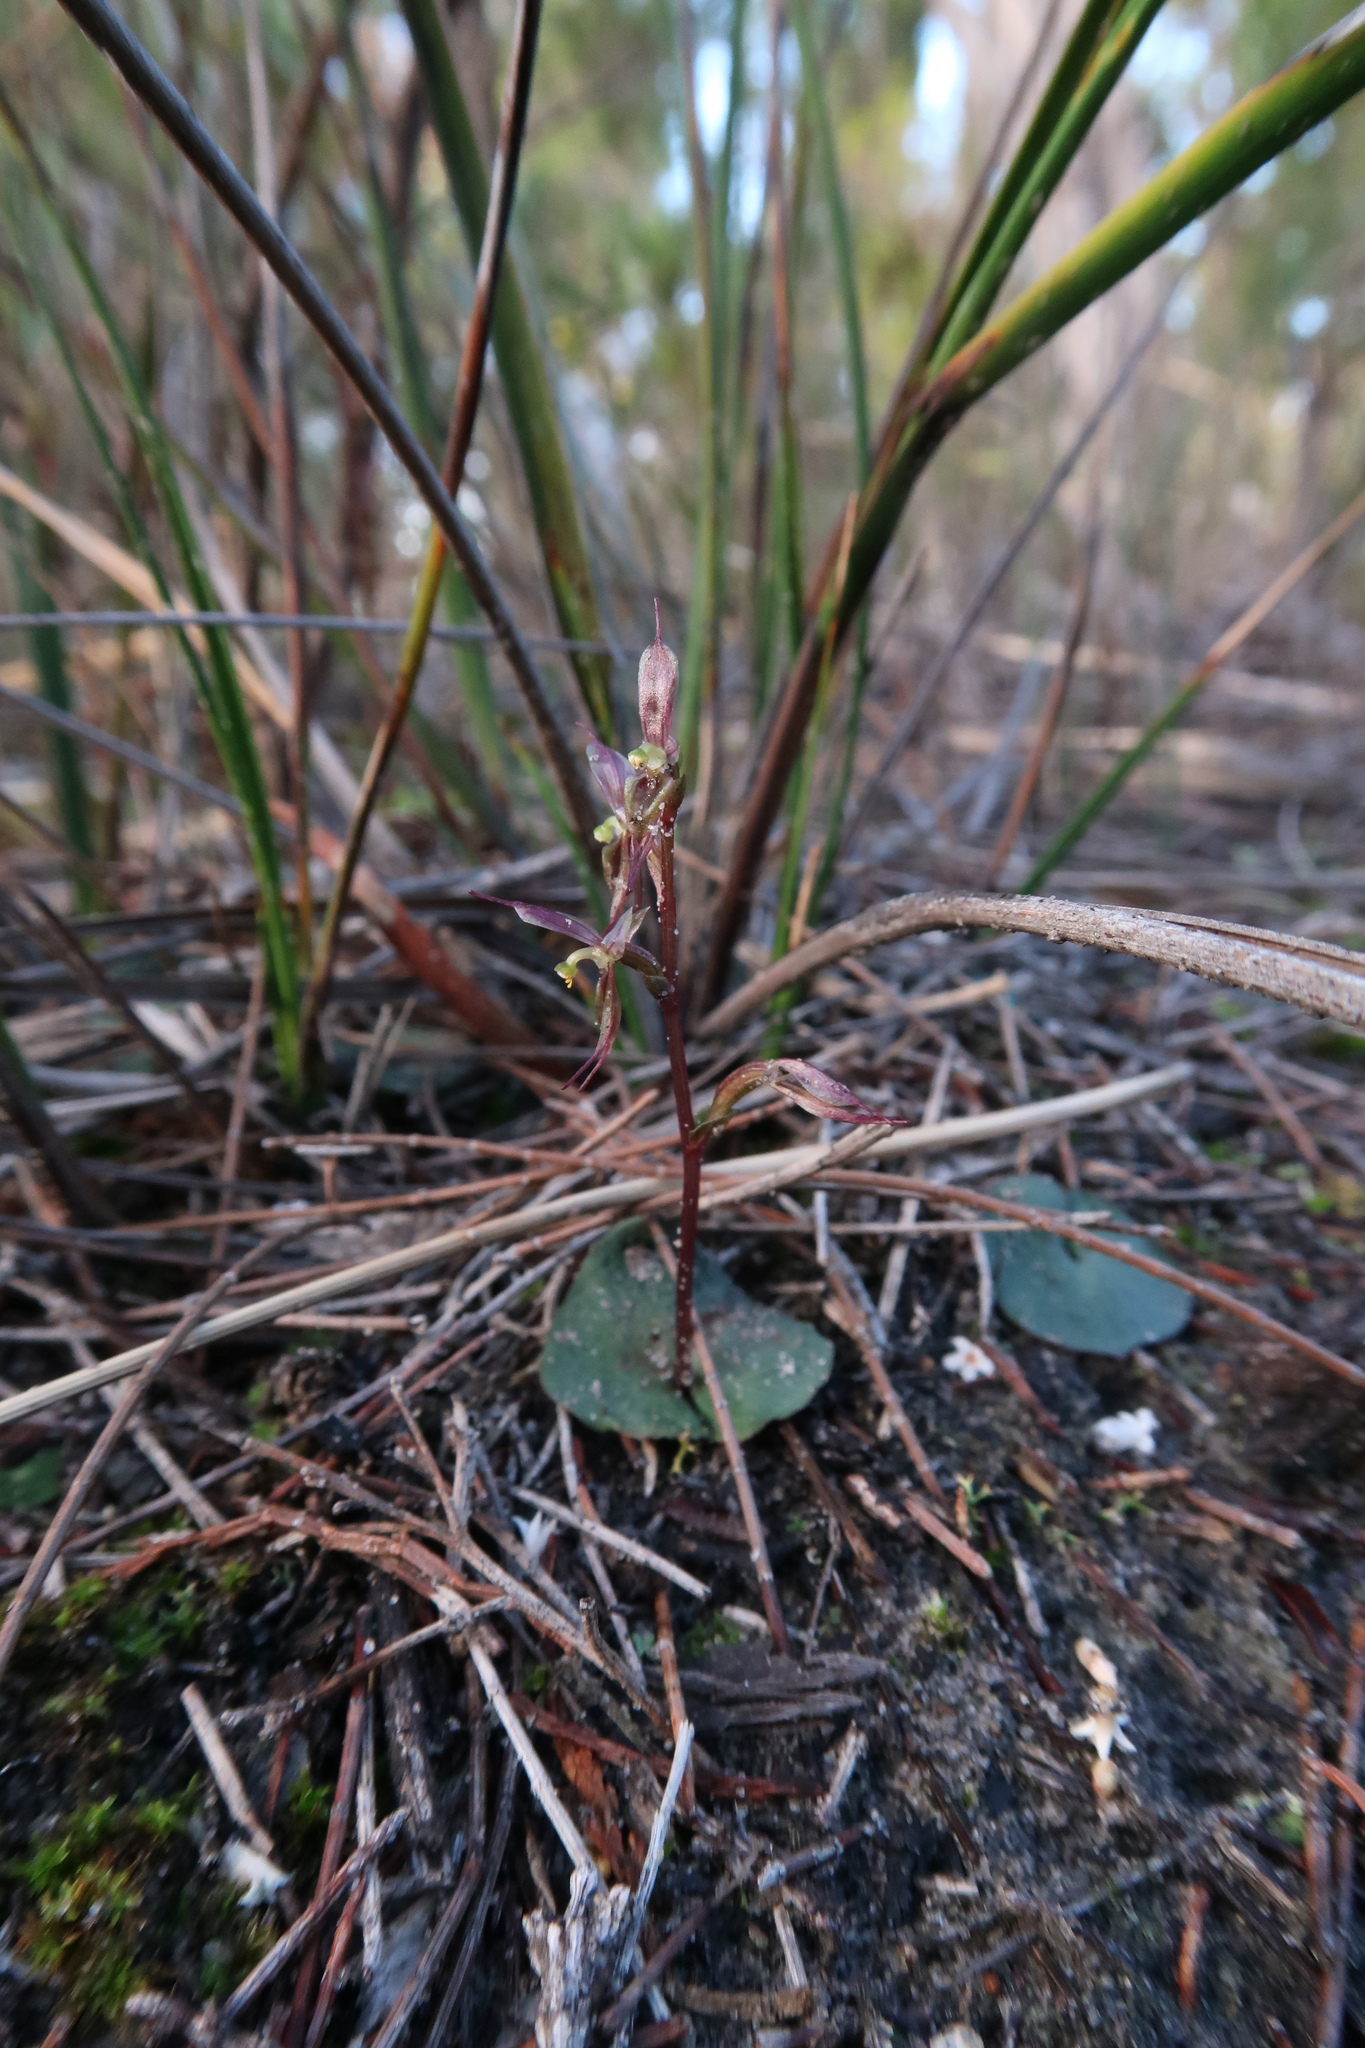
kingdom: Plantae
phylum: Tracheophyta
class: Liliopsida
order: Asparagales
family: Orchidaceae
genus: Acianthus
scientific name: Acianthus pusillus
